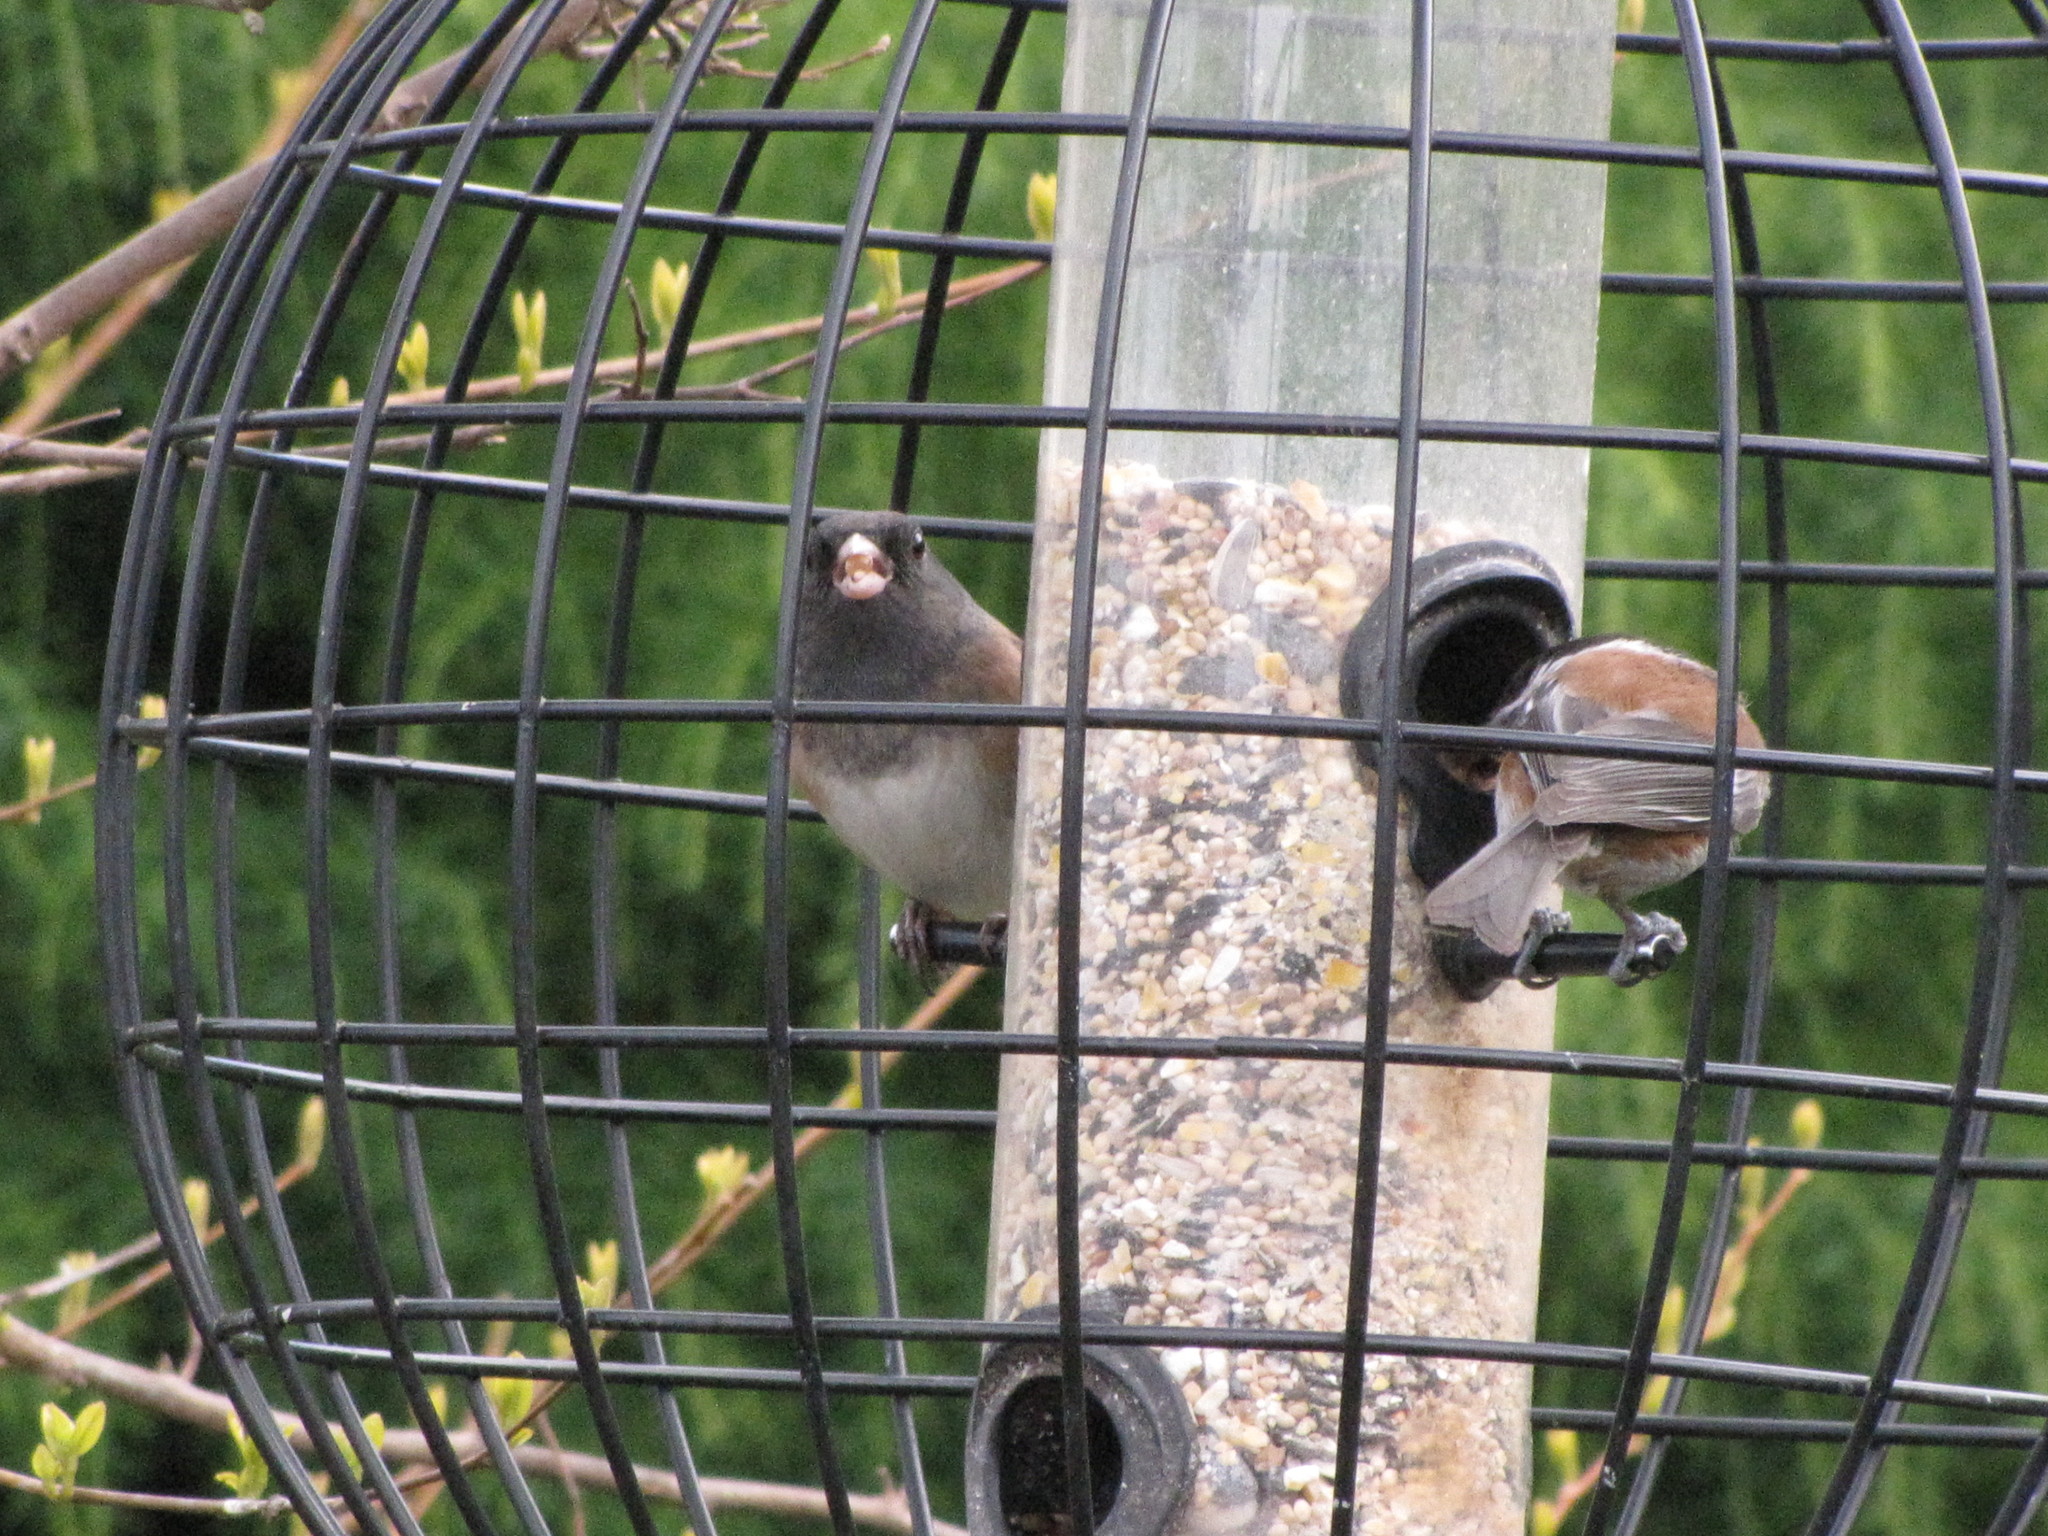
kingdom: Animalia
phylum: Chordata
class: Aves
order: Passeriformes
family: Passerellidae
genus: Junco
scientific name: Junco hyemalis
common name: Dark-eyed junco
